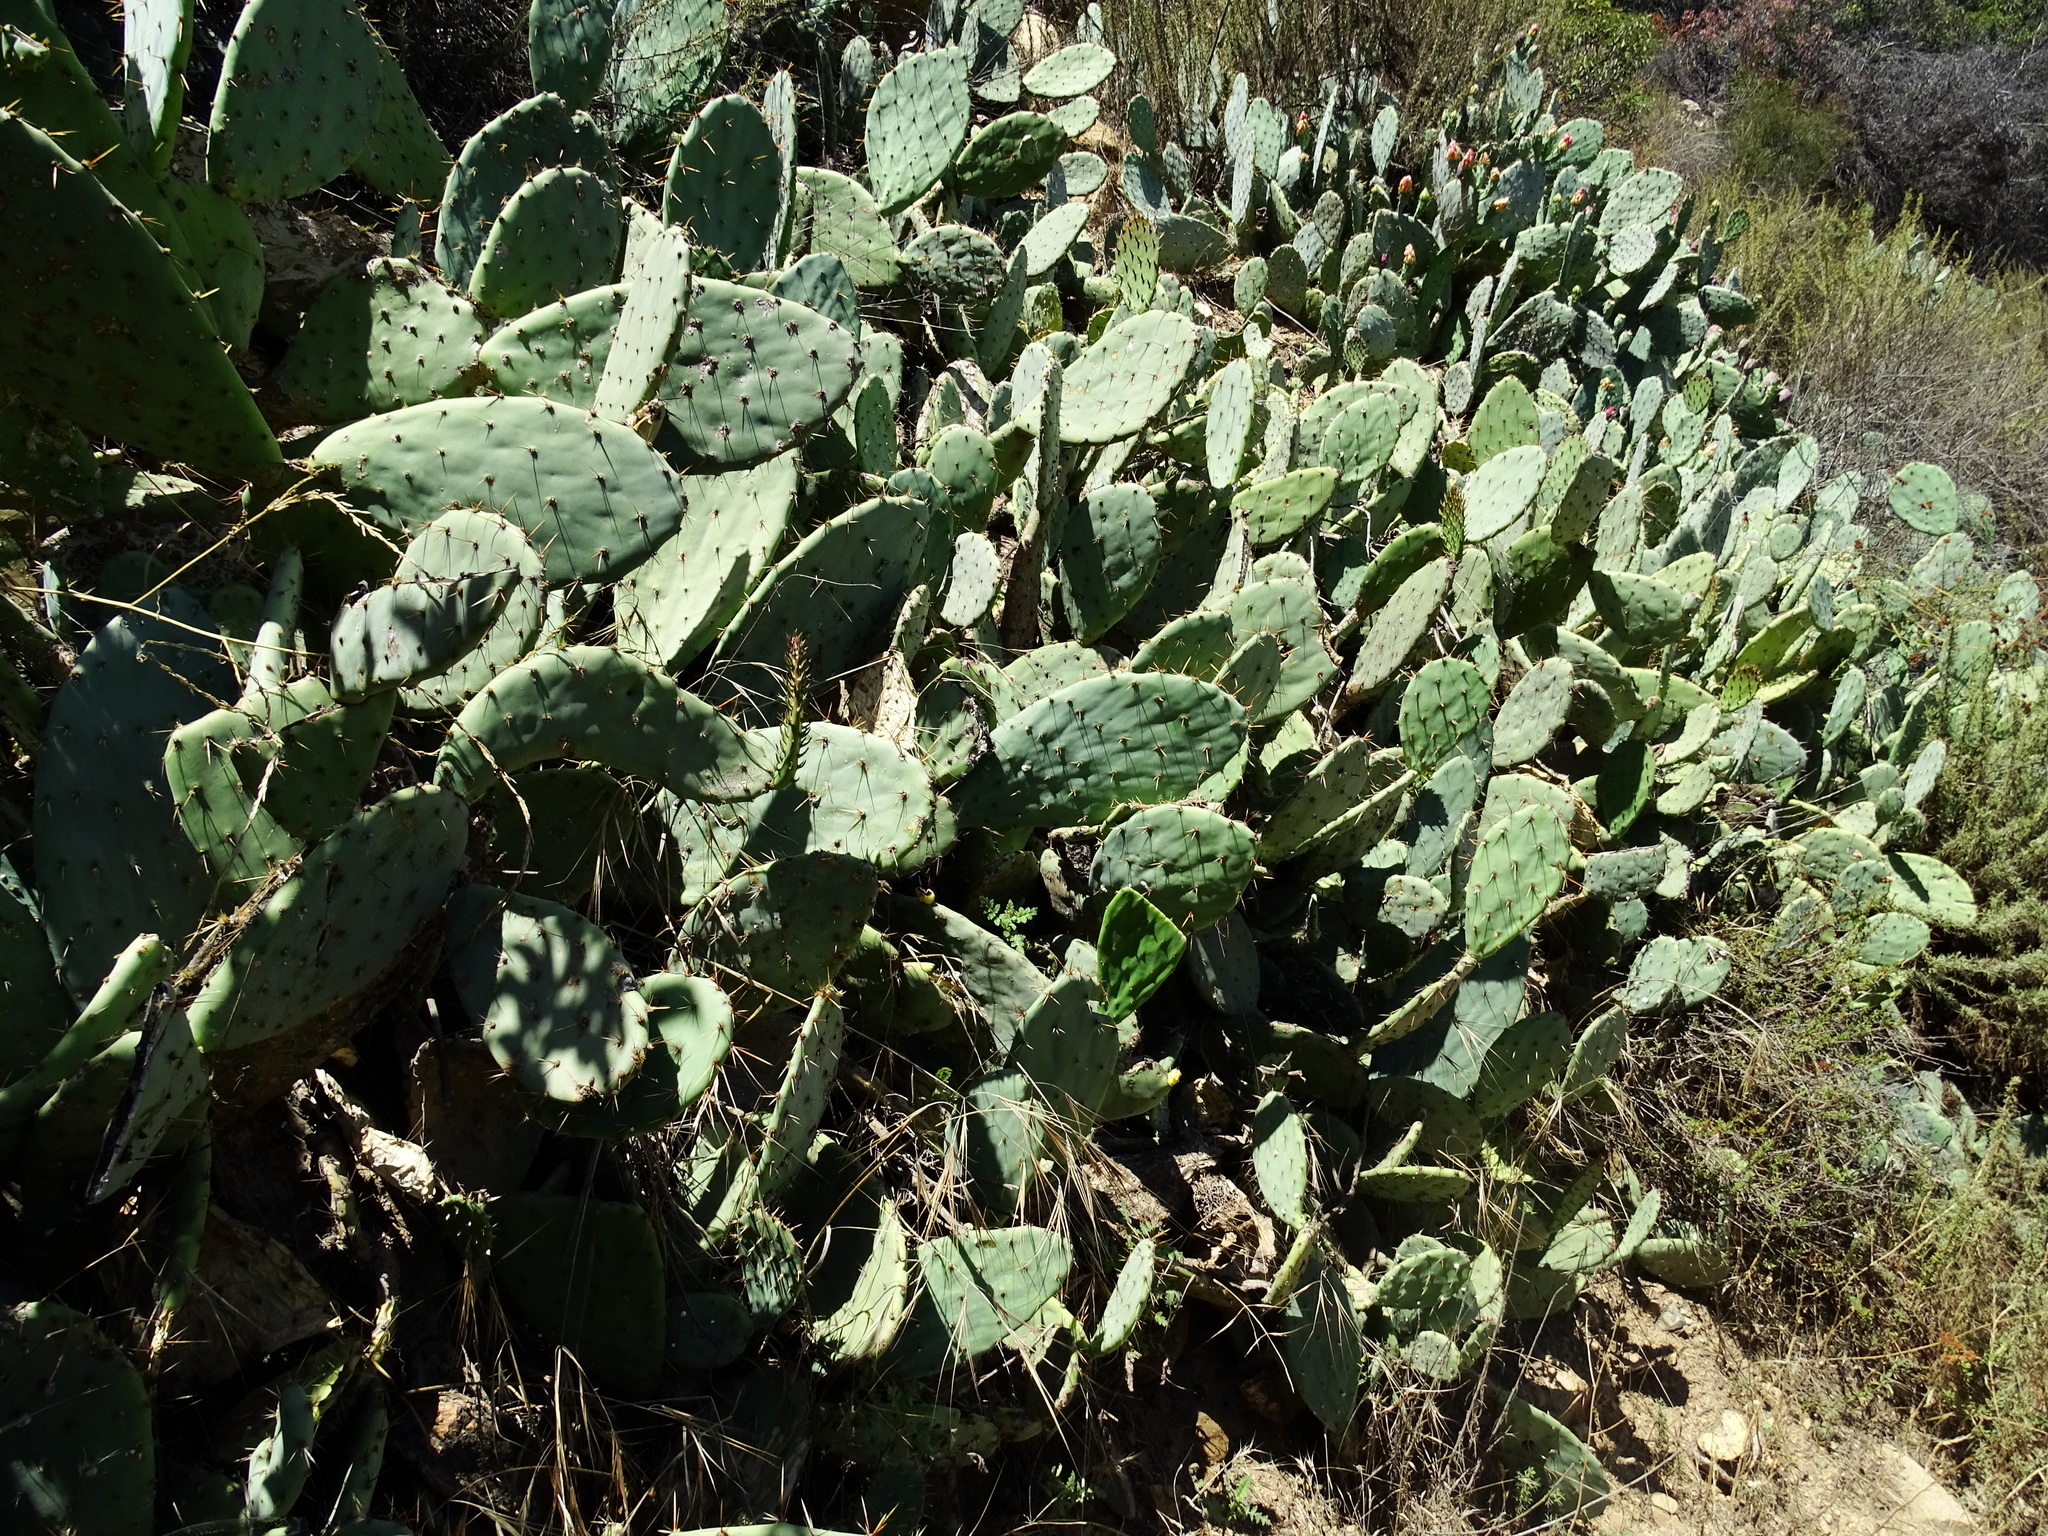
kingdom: Plantae
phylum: Tracheophyta
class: Magnoliopsida
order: Caryophyllales
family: Cactaceae
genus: Opuntia
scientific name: Opuntia littoralis
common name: Coastal prickly-pear
